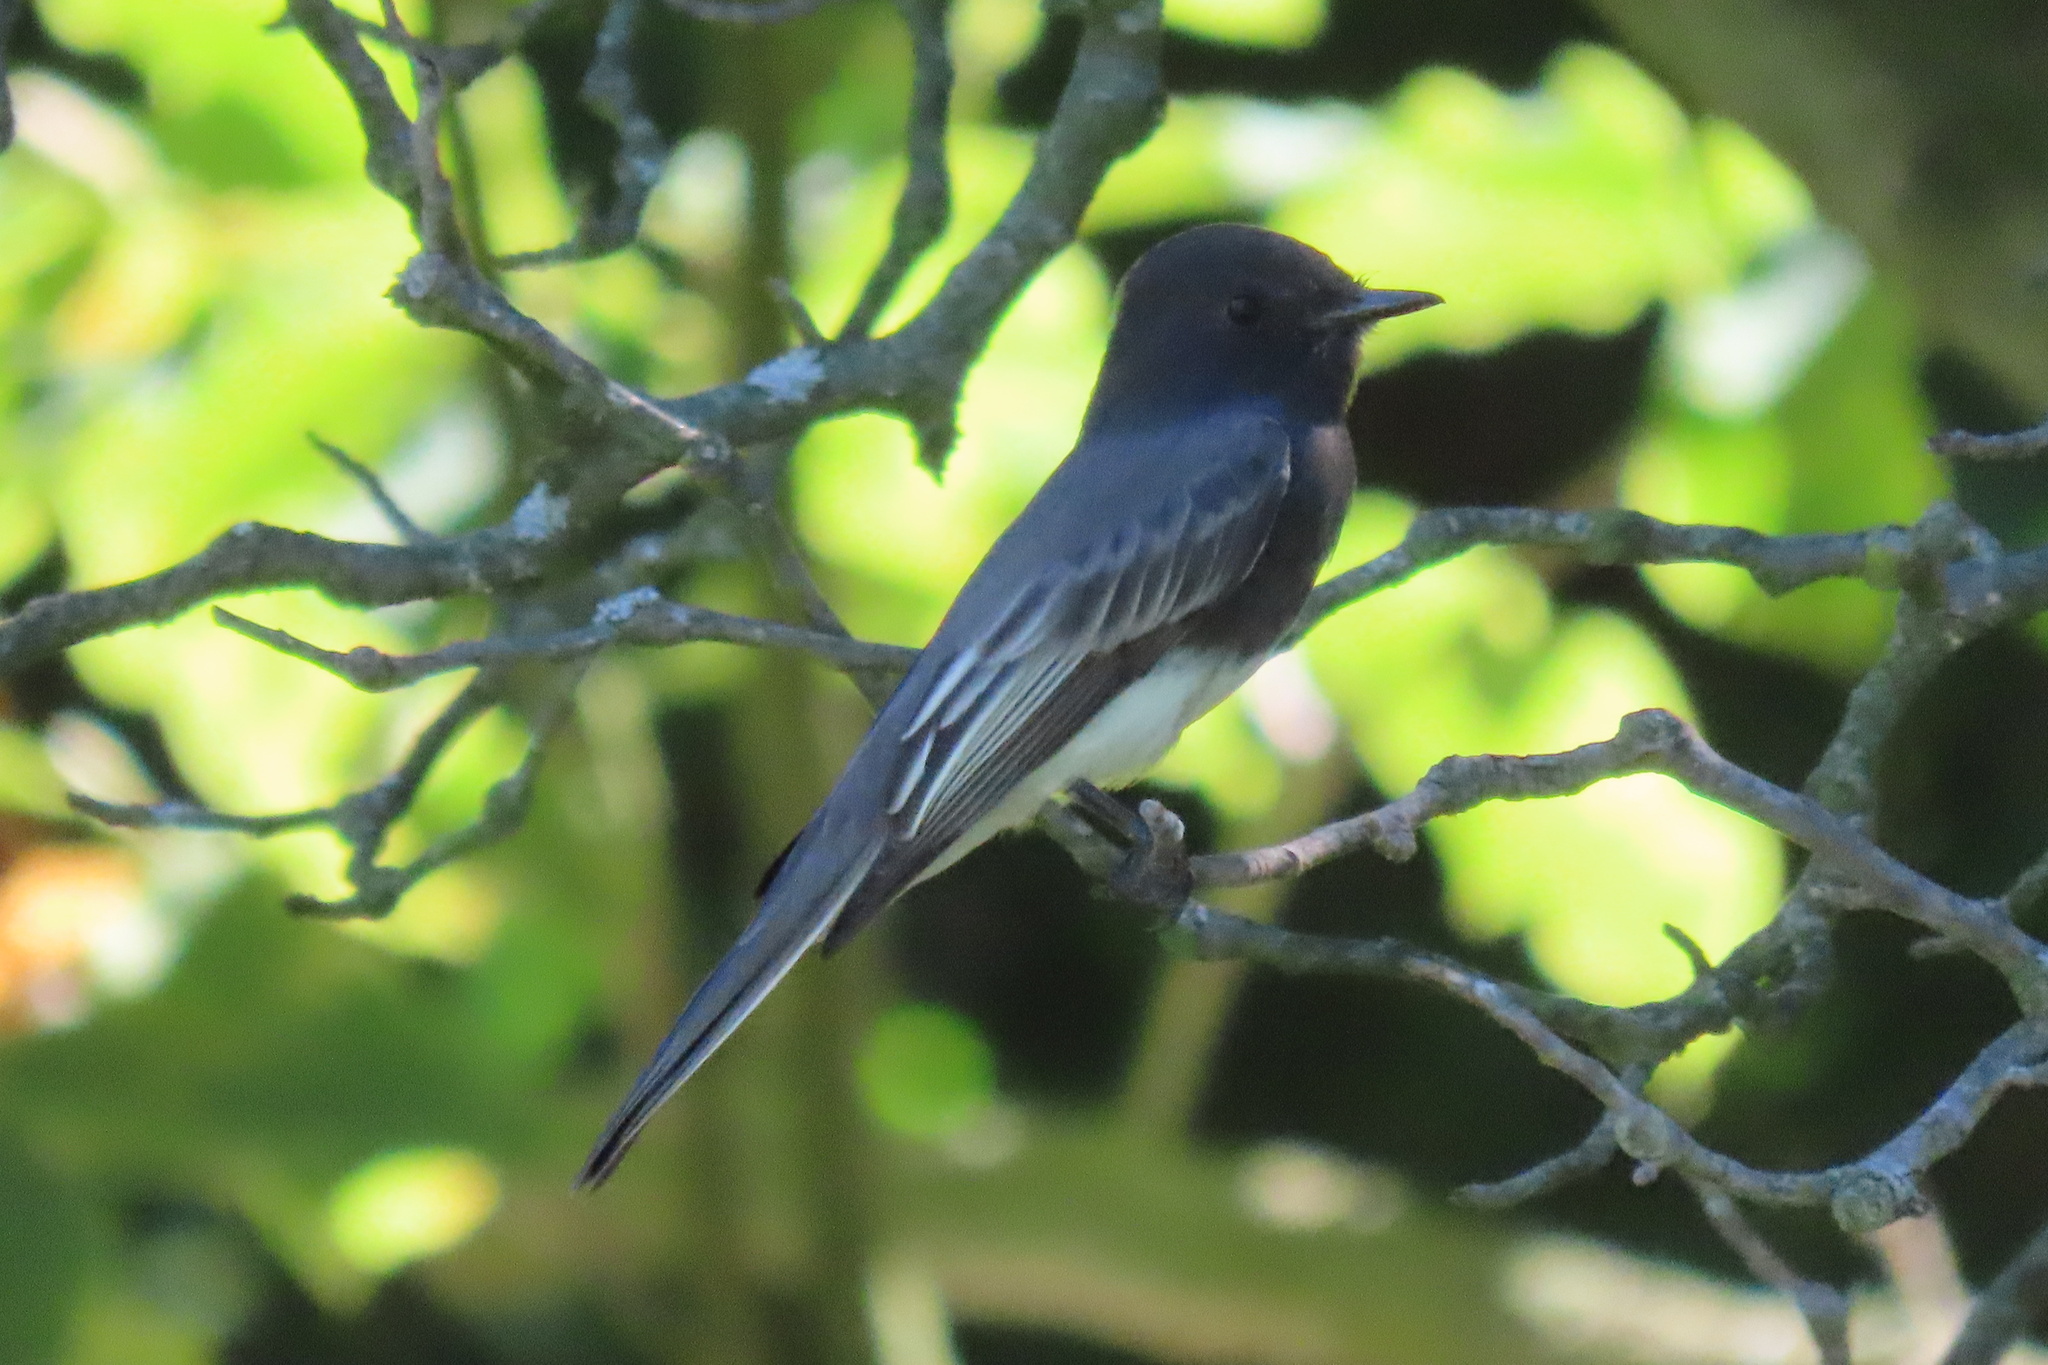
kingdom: Animalia
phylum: Chordata
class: Aves
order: Passeriformes
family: Tyrannidae
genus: Sayornis
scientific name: Sayornis nigricans
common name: Black phoebe
